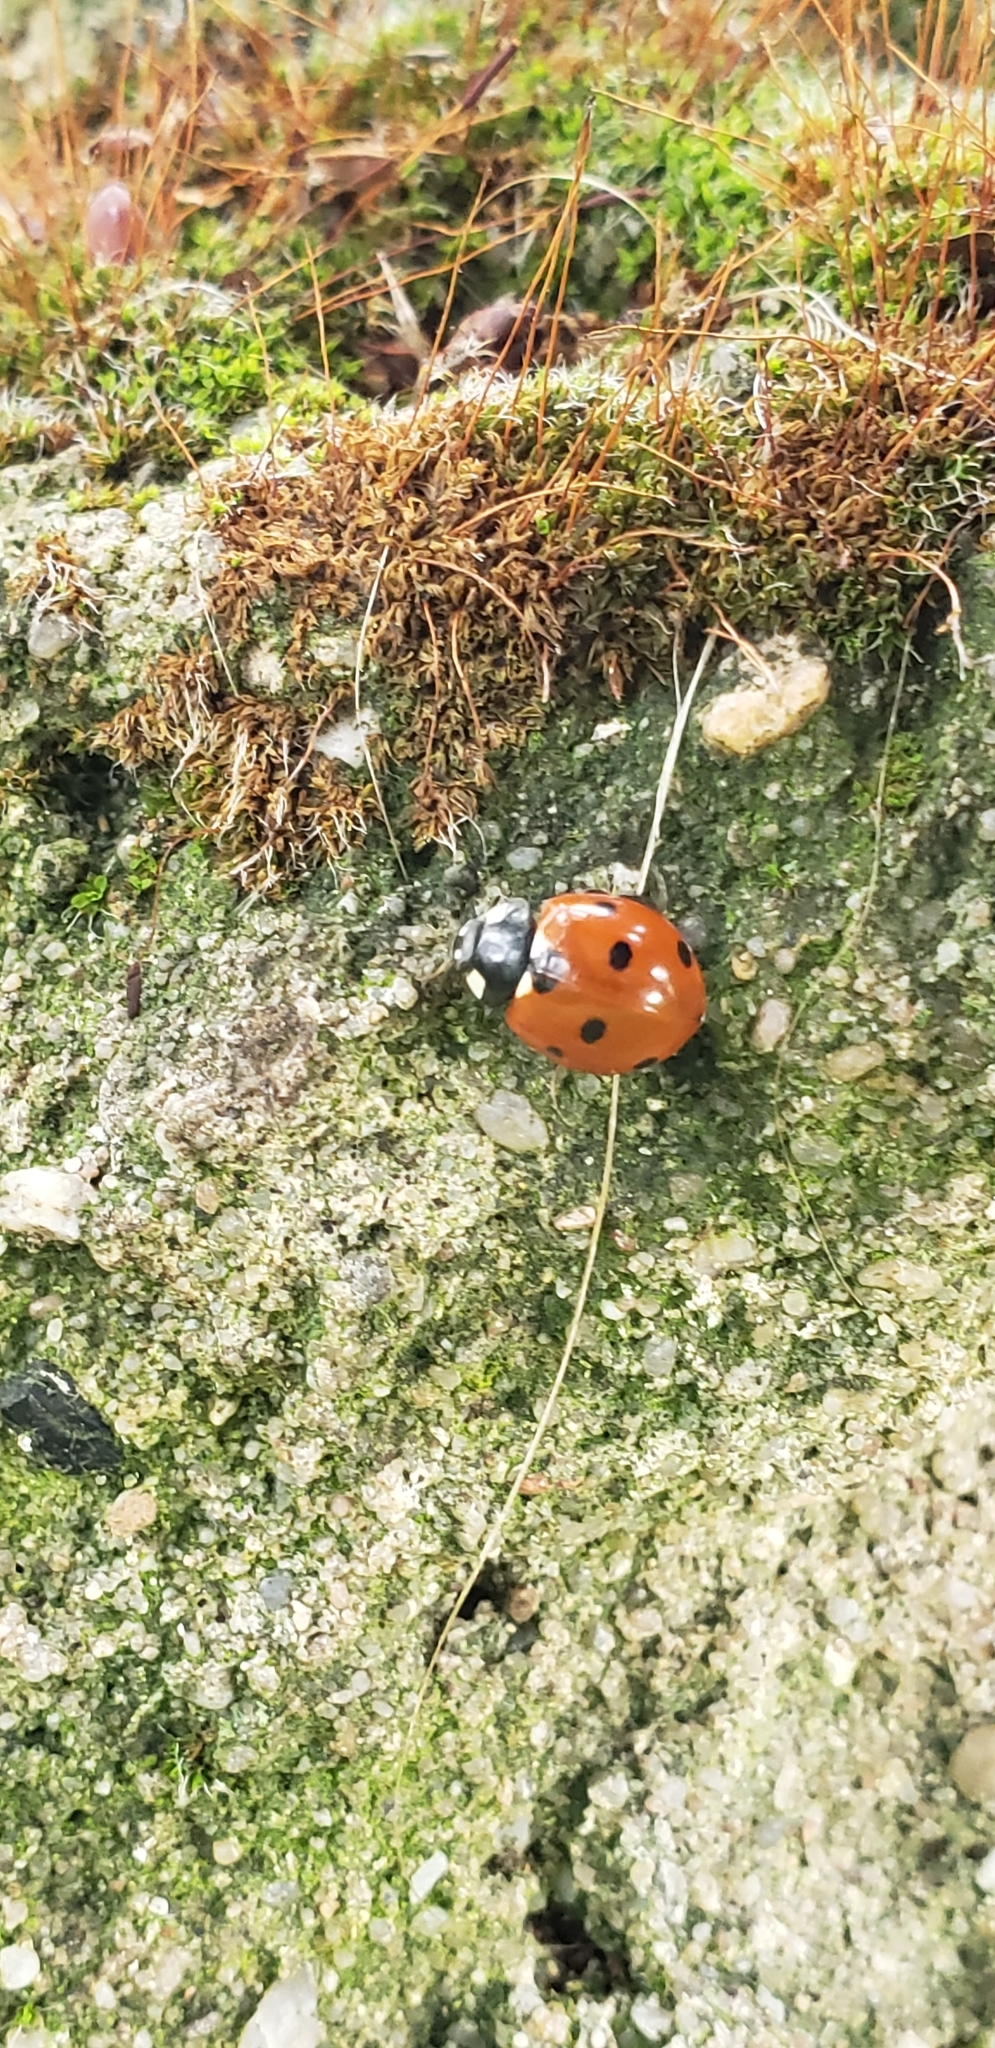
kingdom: Animalia
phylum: Arthropoda
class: Insecta
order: Coleoptera
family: Coccinellidae
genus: Coccinella
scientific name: Coccinella septempunctata
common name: Sevenspotted lady beetle
